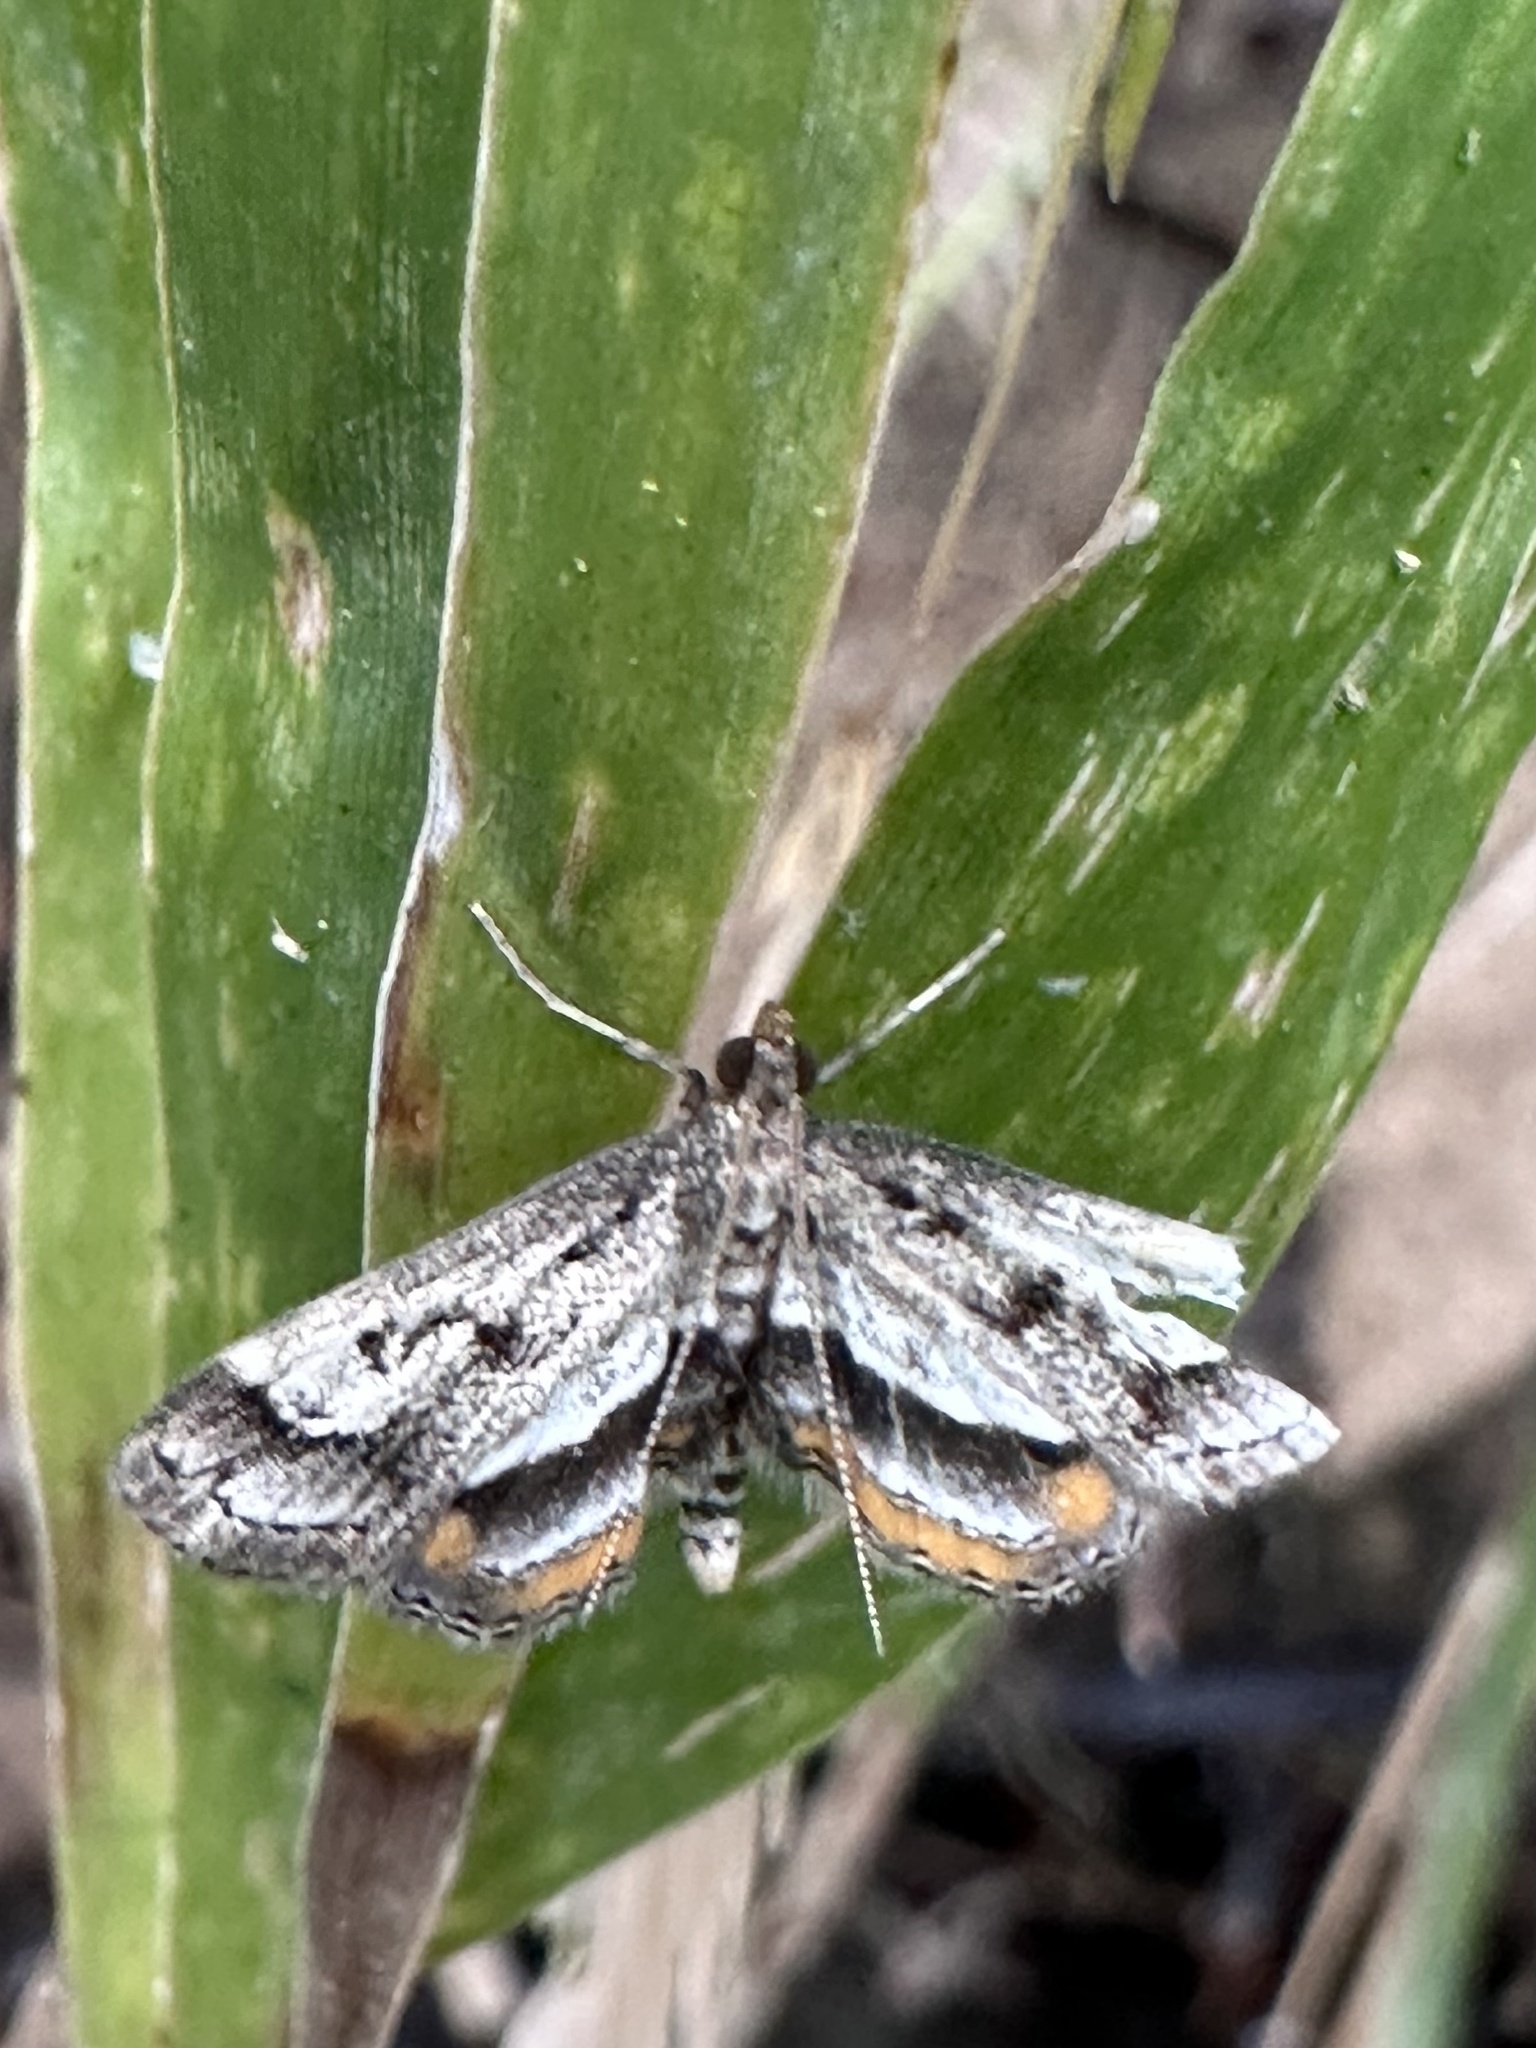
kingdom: Animalia
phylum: Arthropoda
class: Insecta
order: Lepidoptera
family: Crambidae
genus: Parapoynx
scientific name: Parapoynx obscuralis
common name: American china-mark
